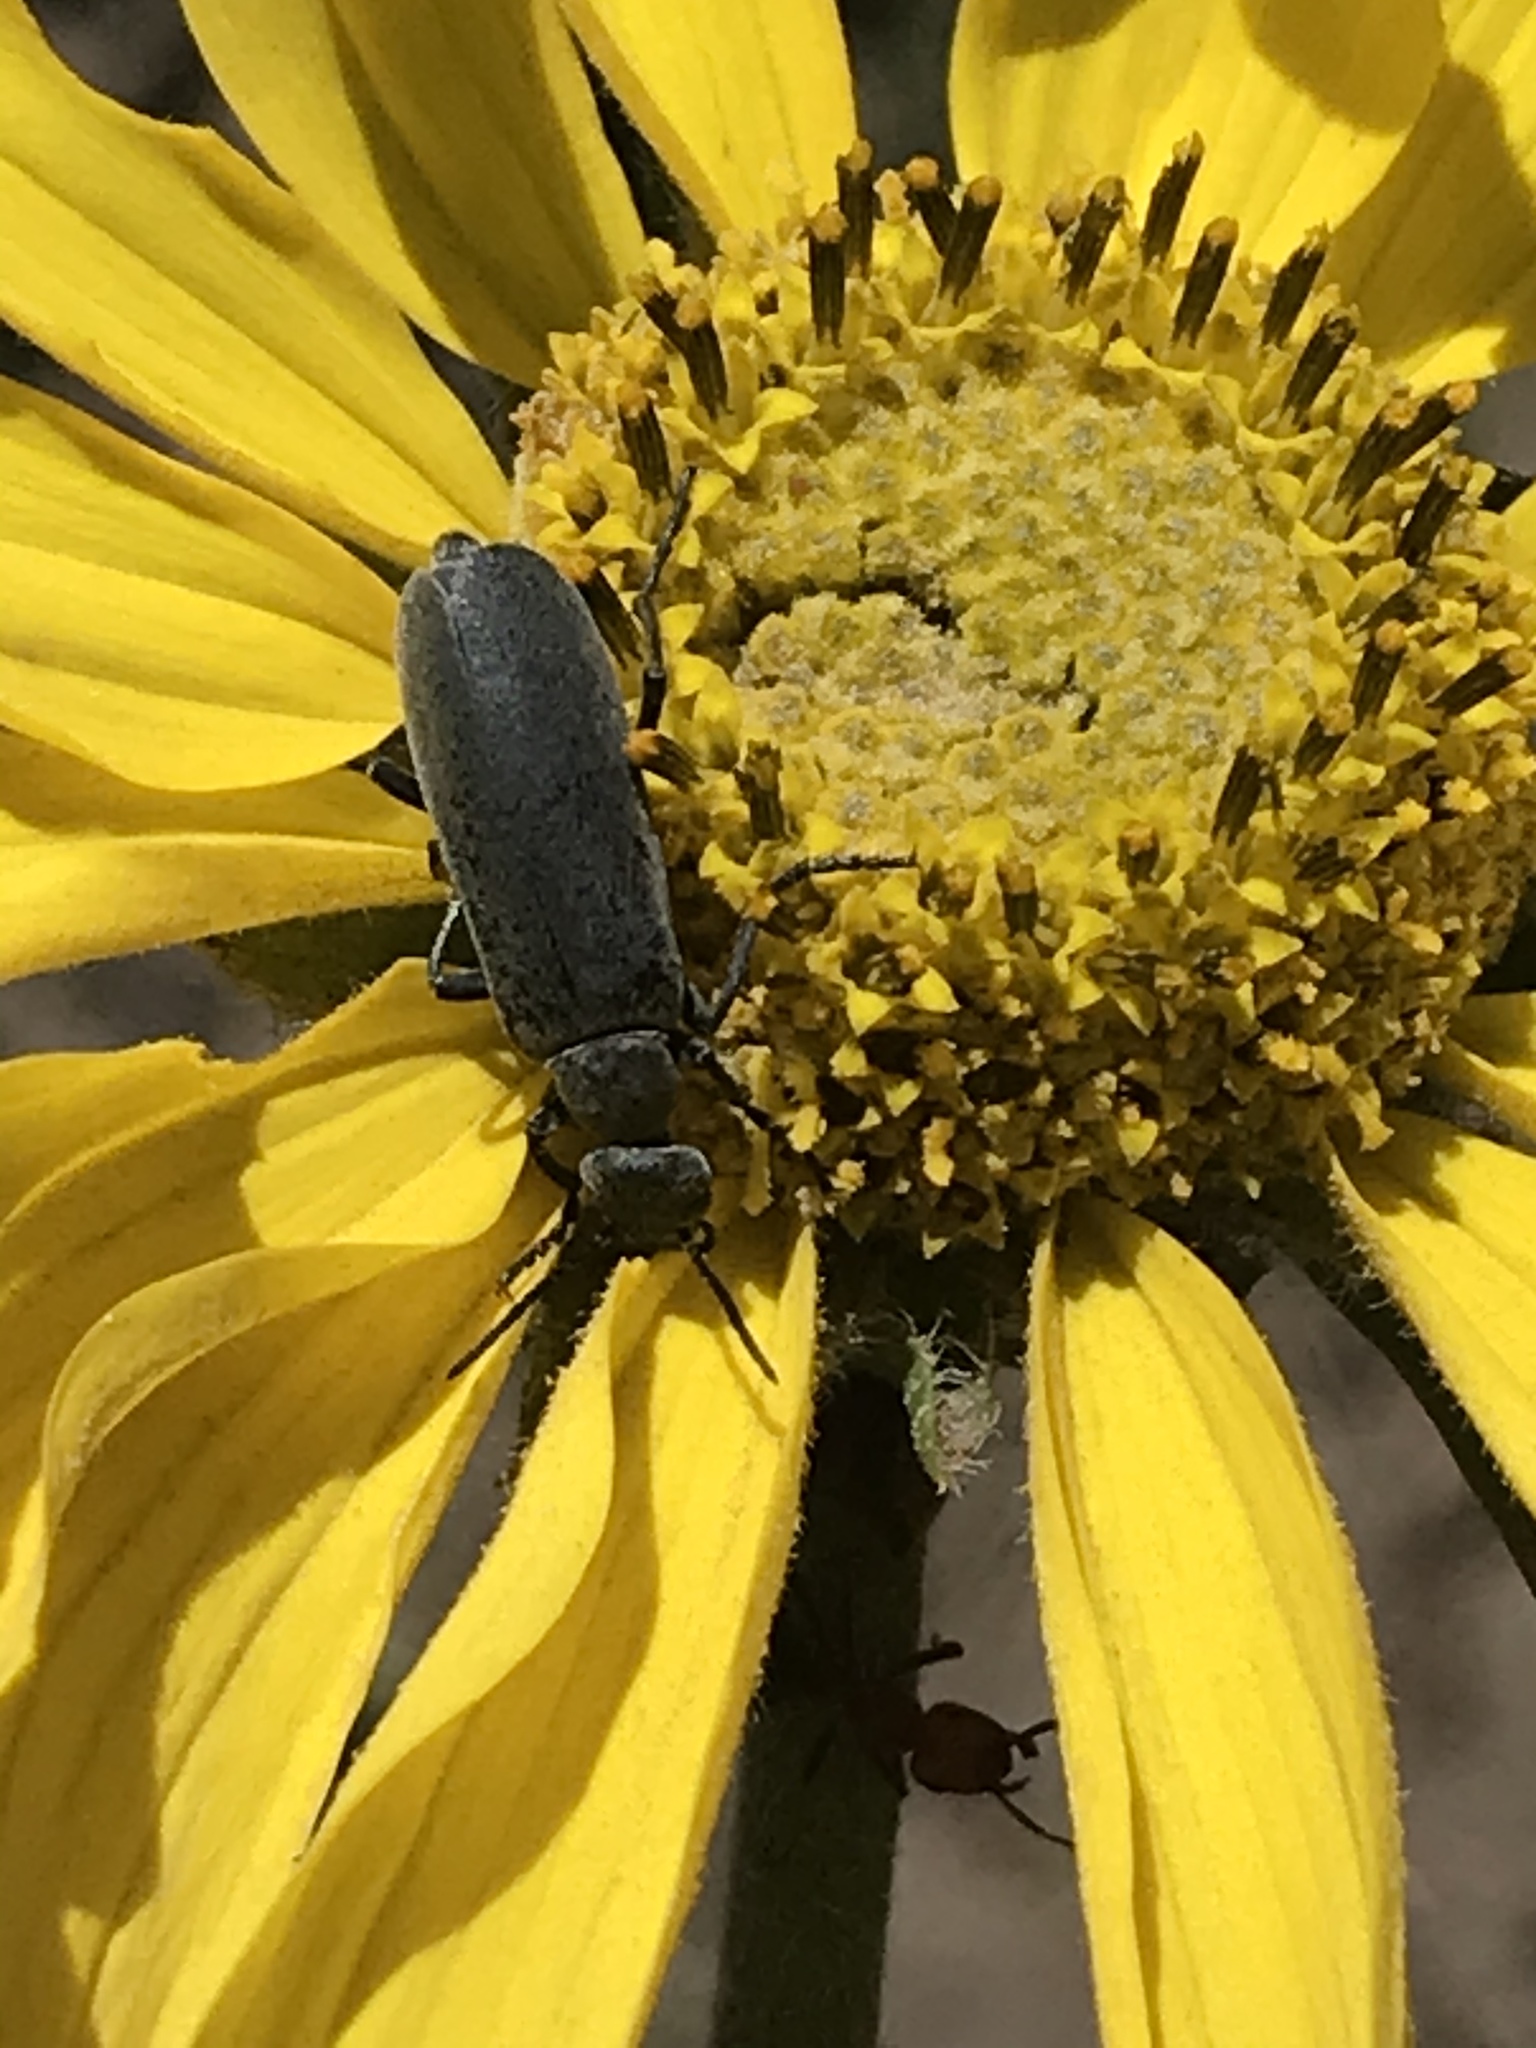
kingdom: Animalia
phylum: Arthropoda
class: Insecta
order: Coleoptera
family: Meloidae
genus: Epicauta
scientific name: Epicauta pruinosa
